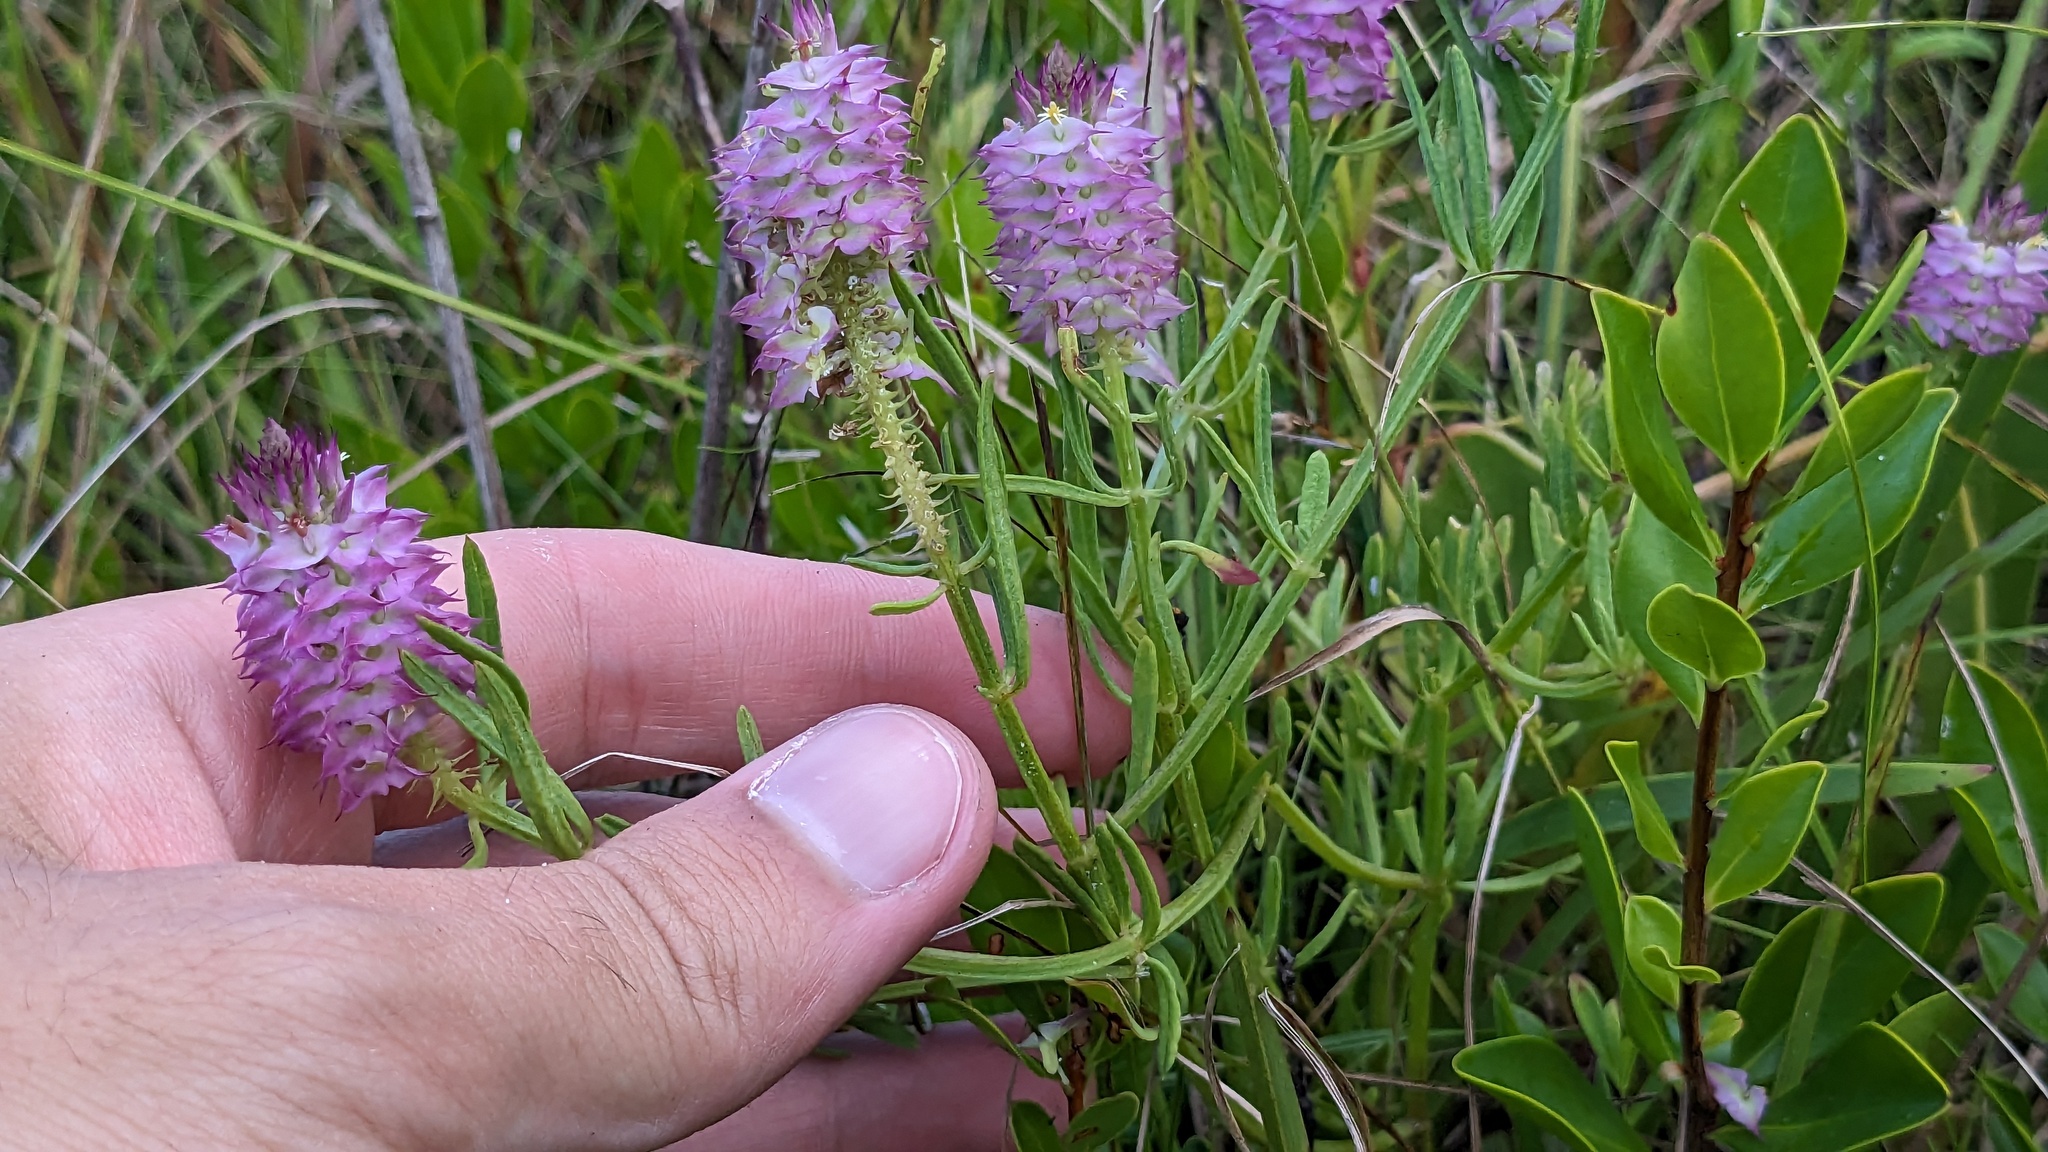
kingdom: Plantae
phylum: Tracheophyta
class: Magnoliopsida
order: Fabales
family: Polygalaceae
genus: Polygala
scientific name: Polygala cruciata
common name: Drumheads
